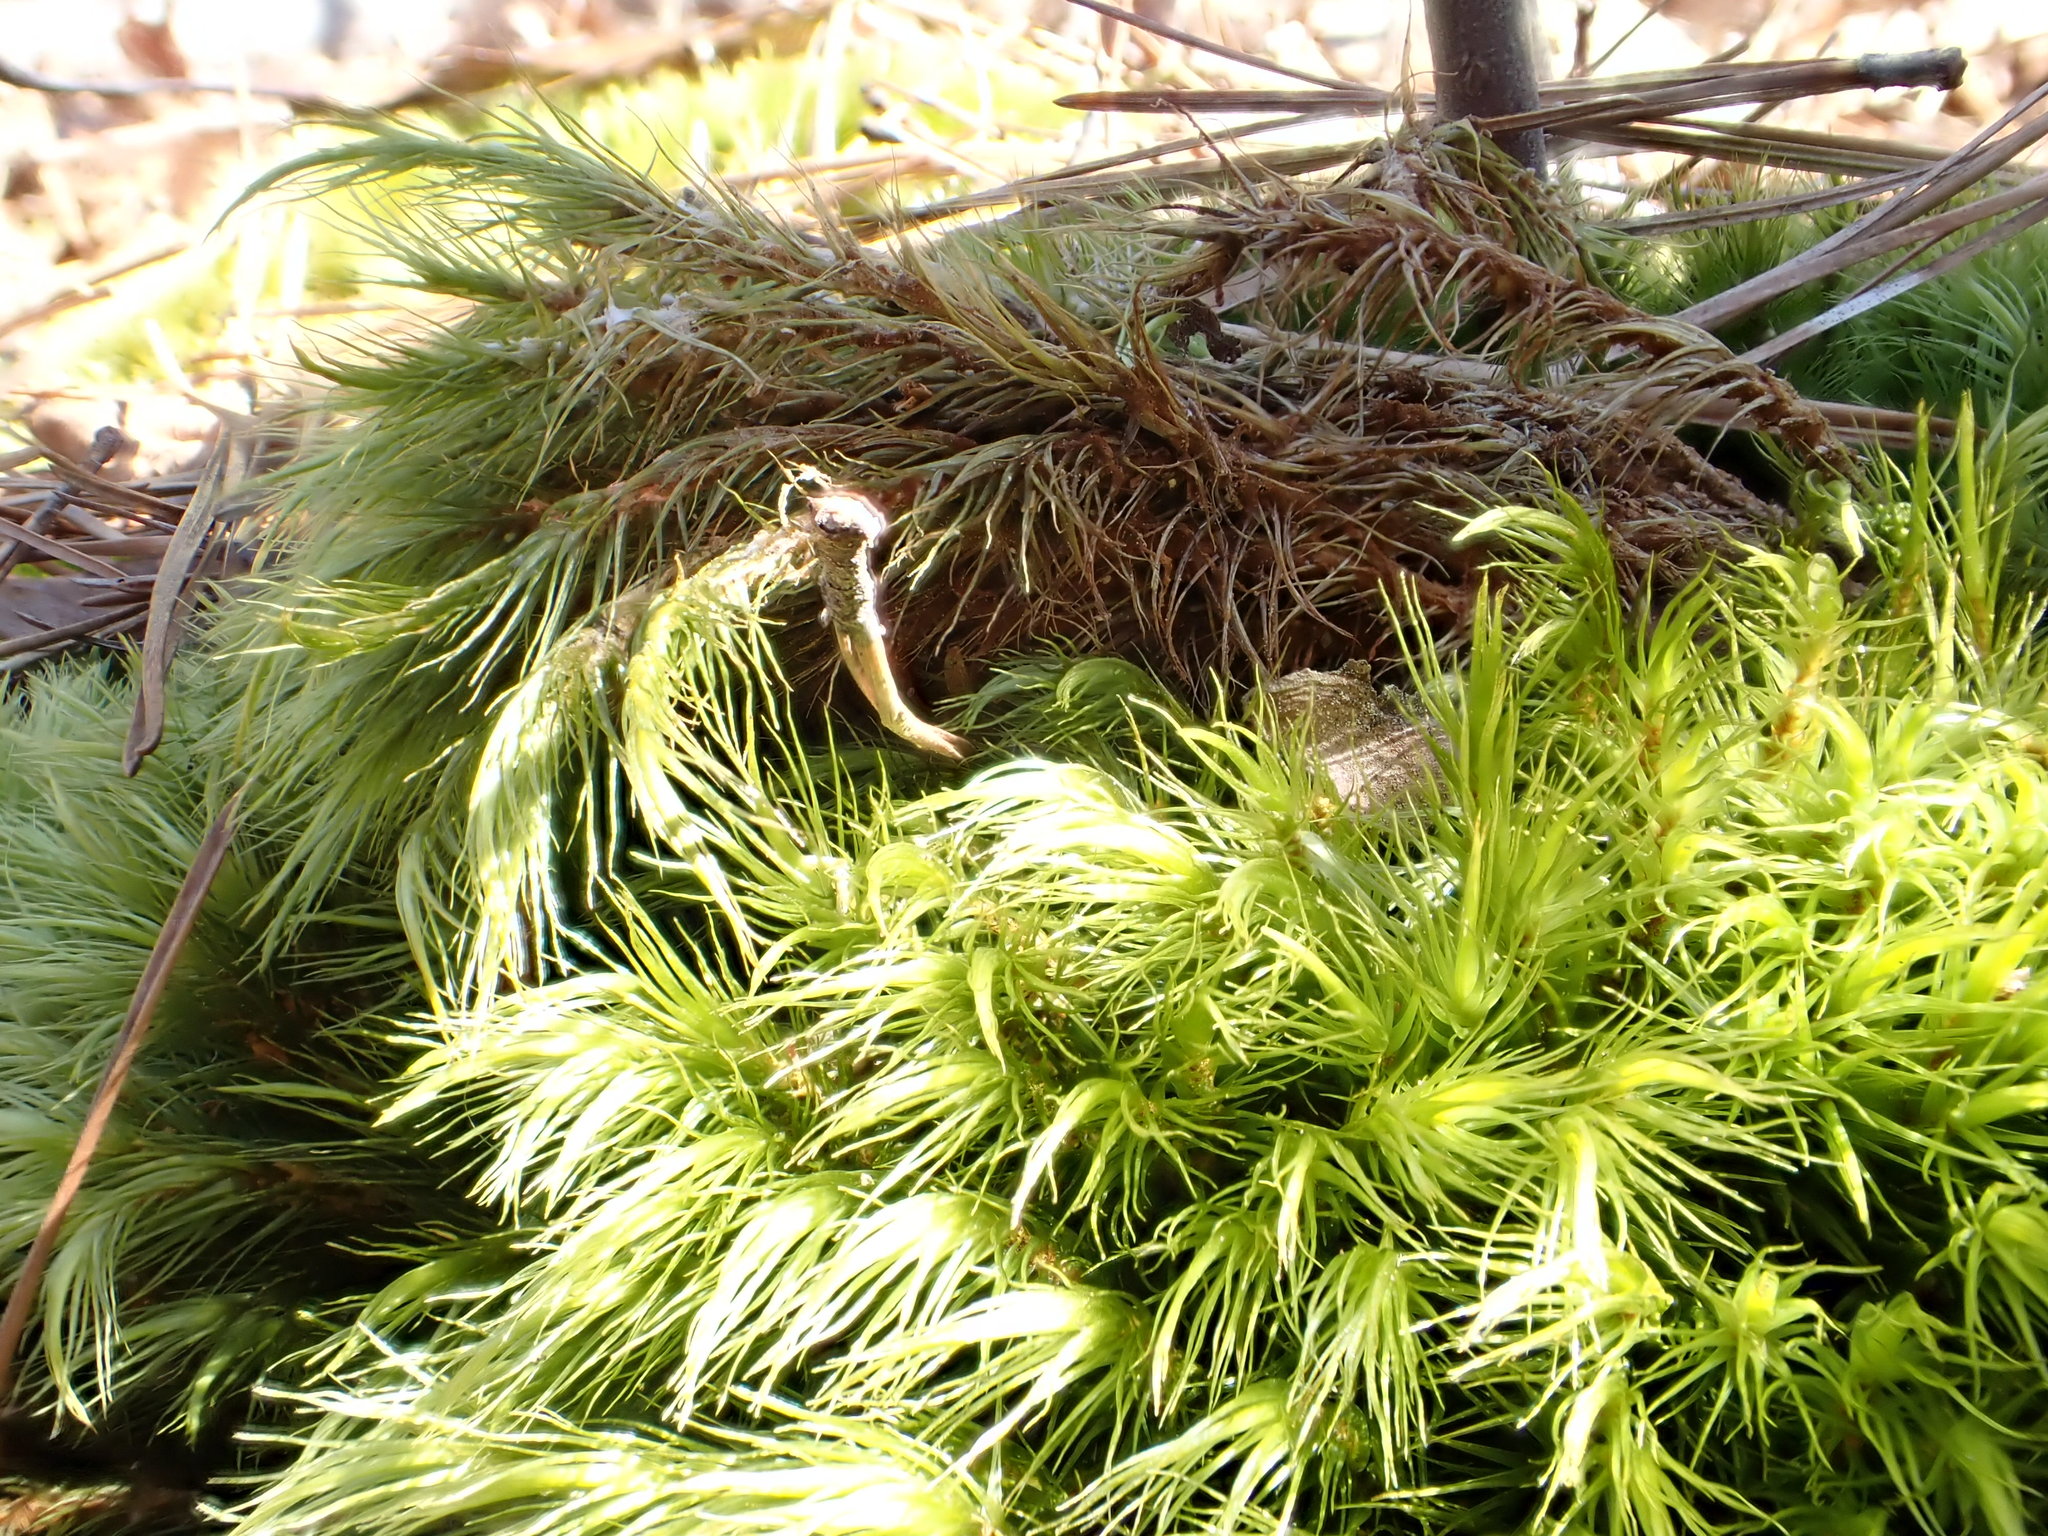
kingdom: Plantae
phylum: Bryophyta
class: Bryopsida
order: Dicranales
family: Dicranaceae
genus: Dicranum
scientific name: Dicranum scoparium
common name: Broom fork-moss
